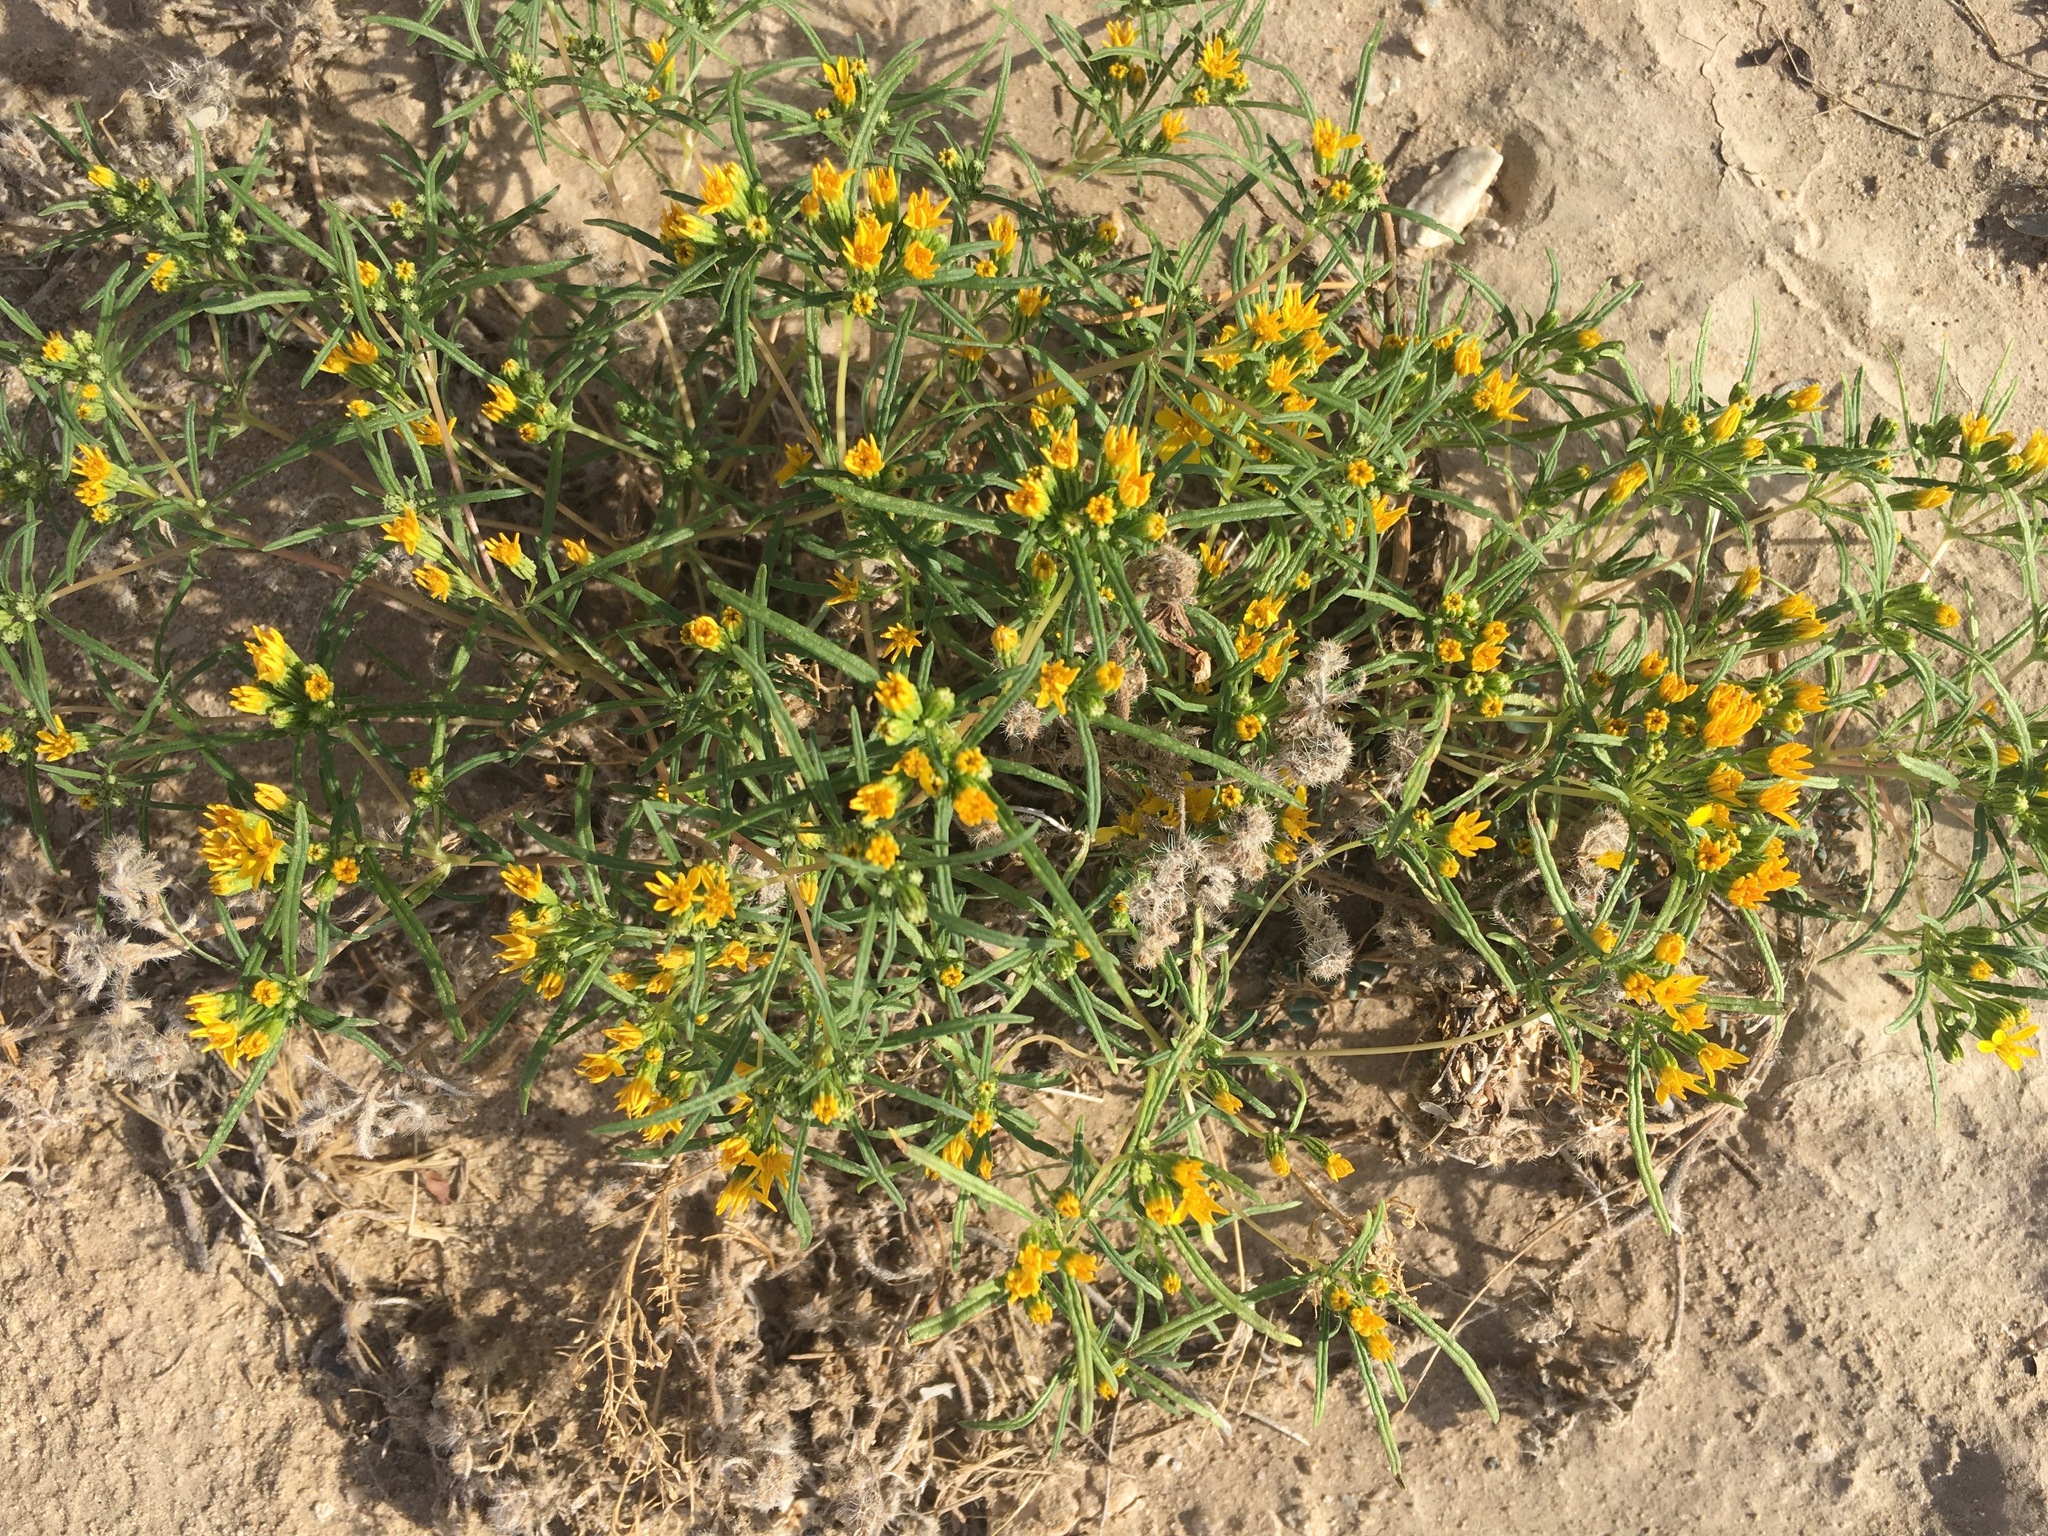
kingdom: Plantae
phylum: Tracheophyta
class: Magnoliopsida
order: Asterales
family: Asteraceae
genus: Pectis
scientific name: Pectis papposa
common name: Many-bristle chinchweed
